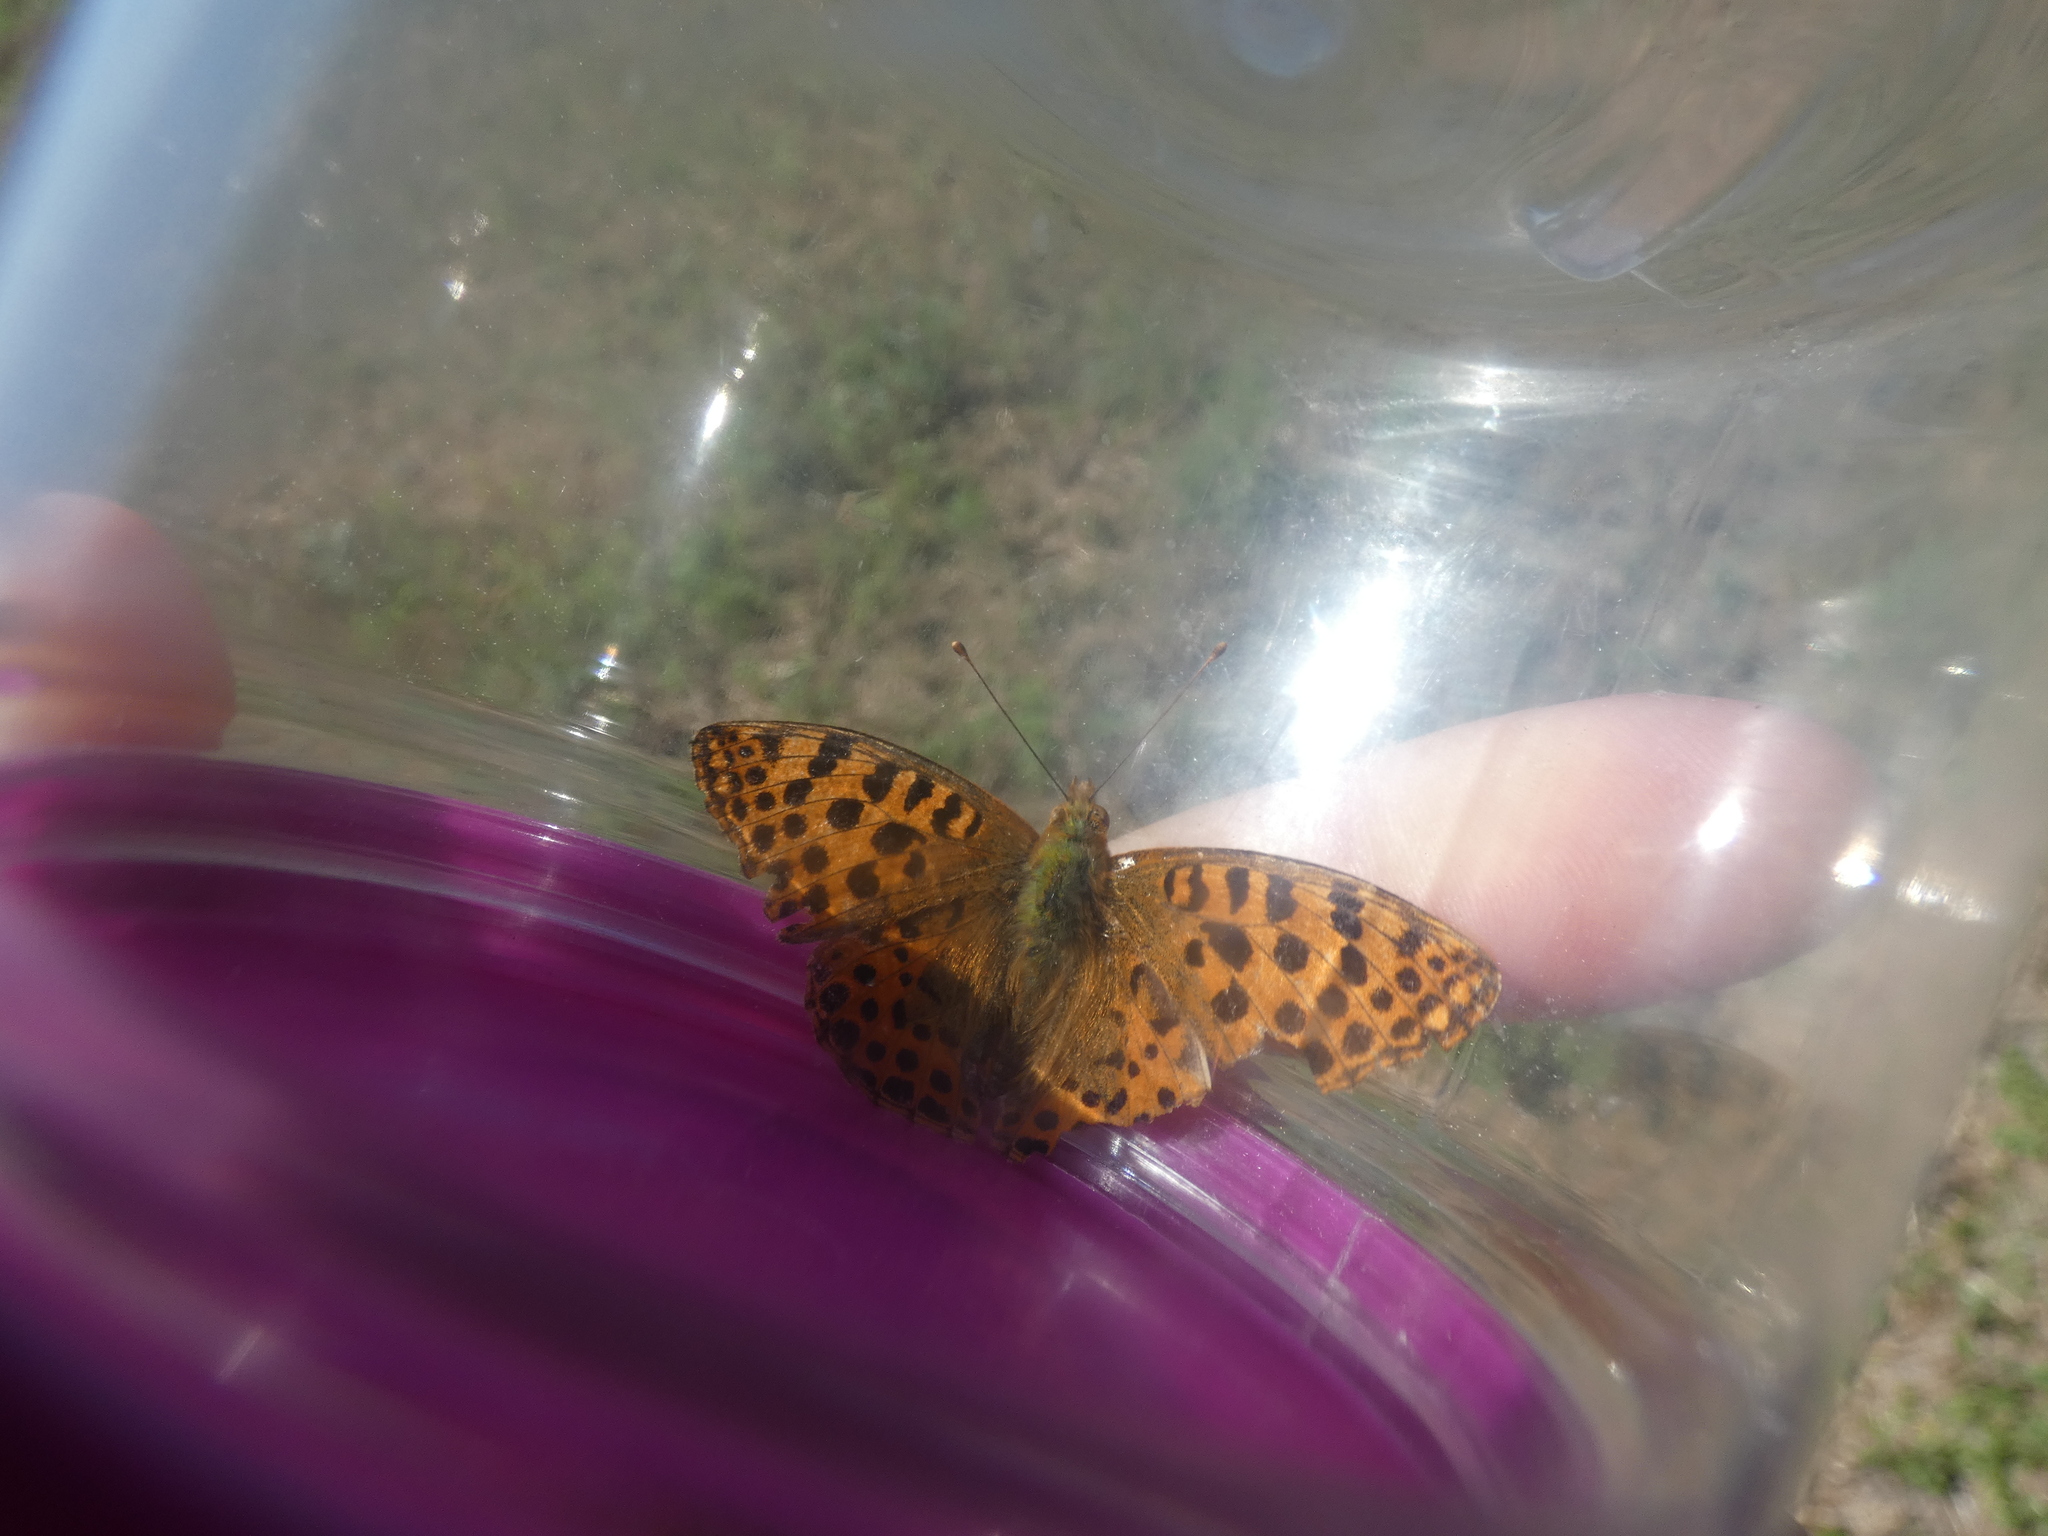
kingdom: Animalia
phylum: Arthropoda
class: Insecta
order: Lepidoptera
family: Nymphalidae
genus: Issoria
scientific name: Issoria lathonia
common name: Queen of spain fritillary
